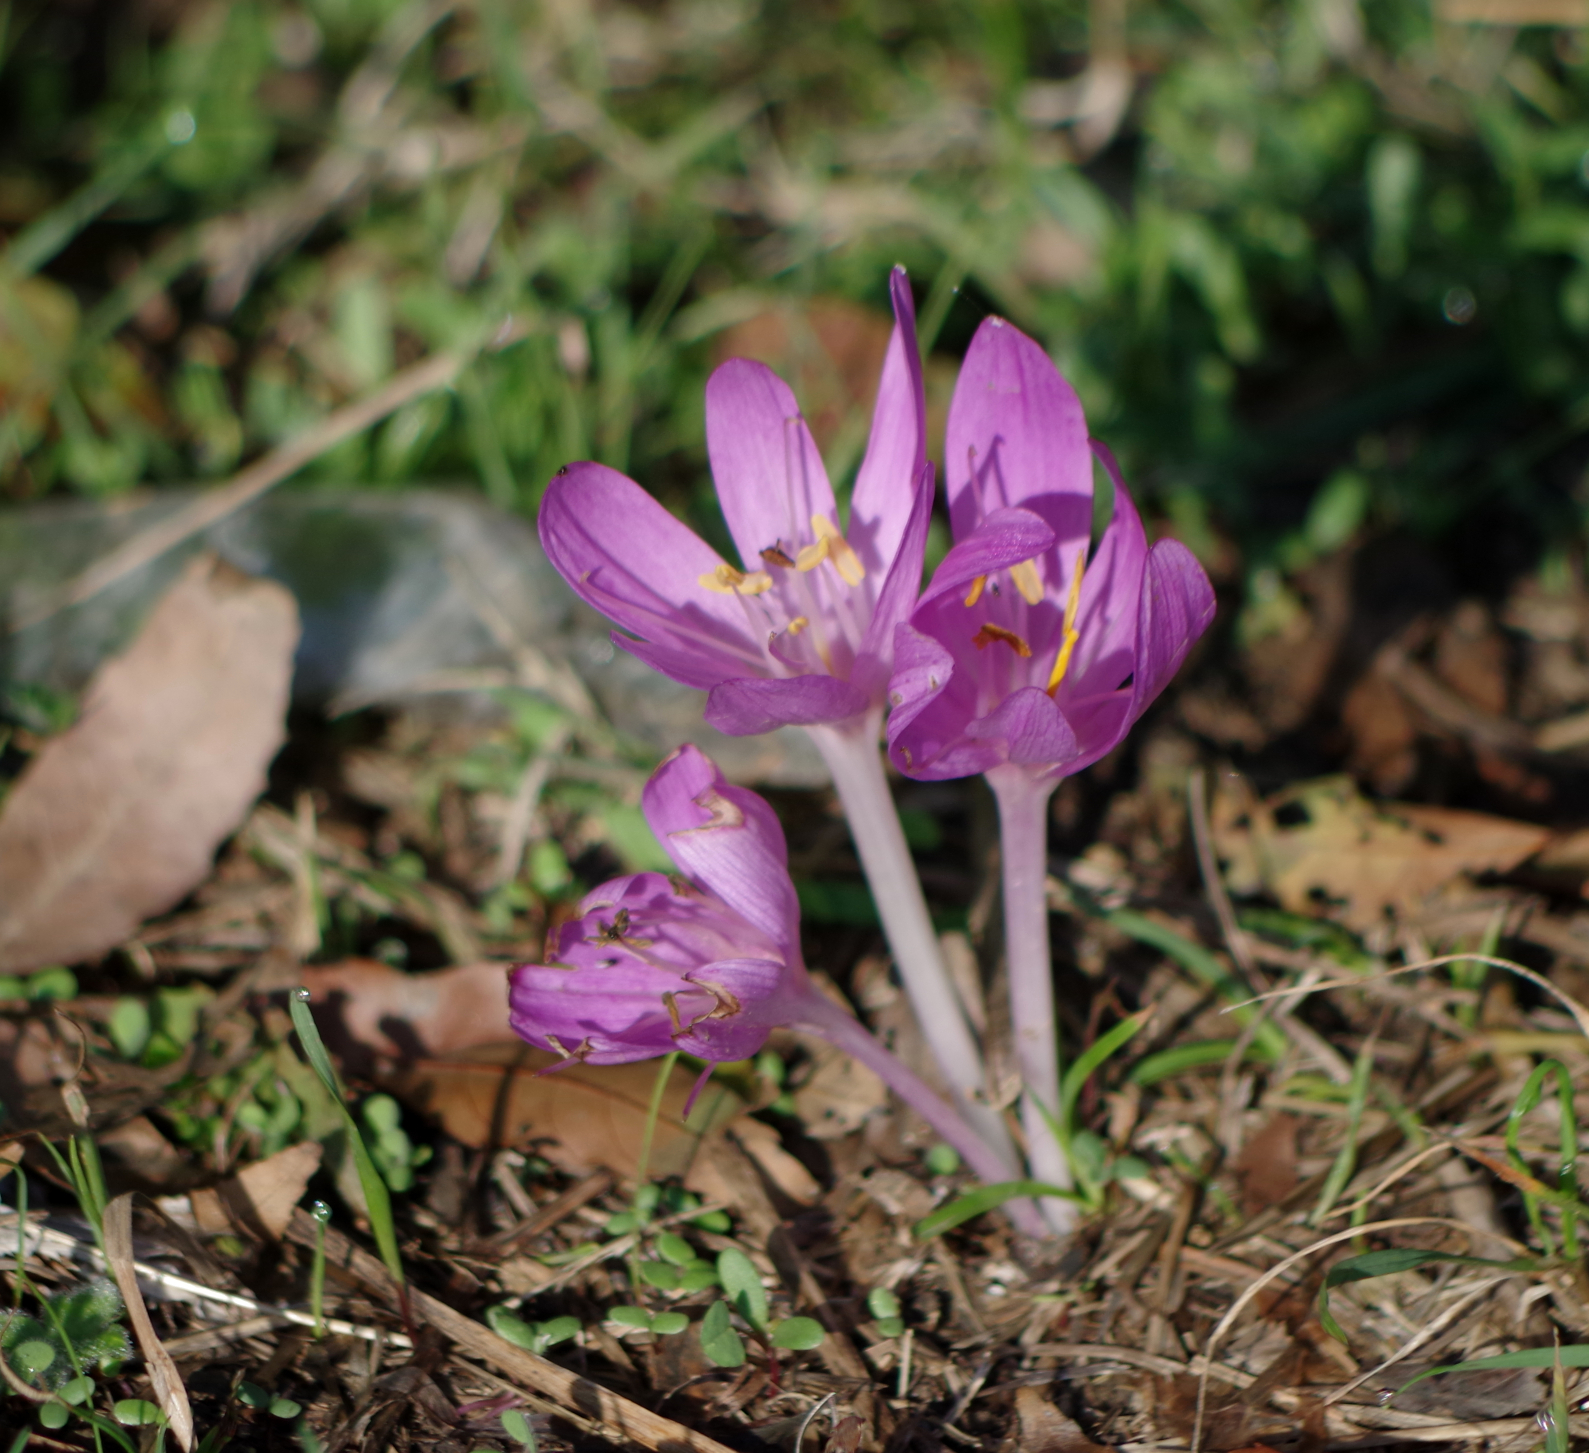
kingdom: Plantae
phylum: Tracheophyta
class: Liliopsida
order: Liliales
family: Colchicaceae
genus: Colchicum
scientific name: Colchicum autumnale
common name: Autumn crocus
